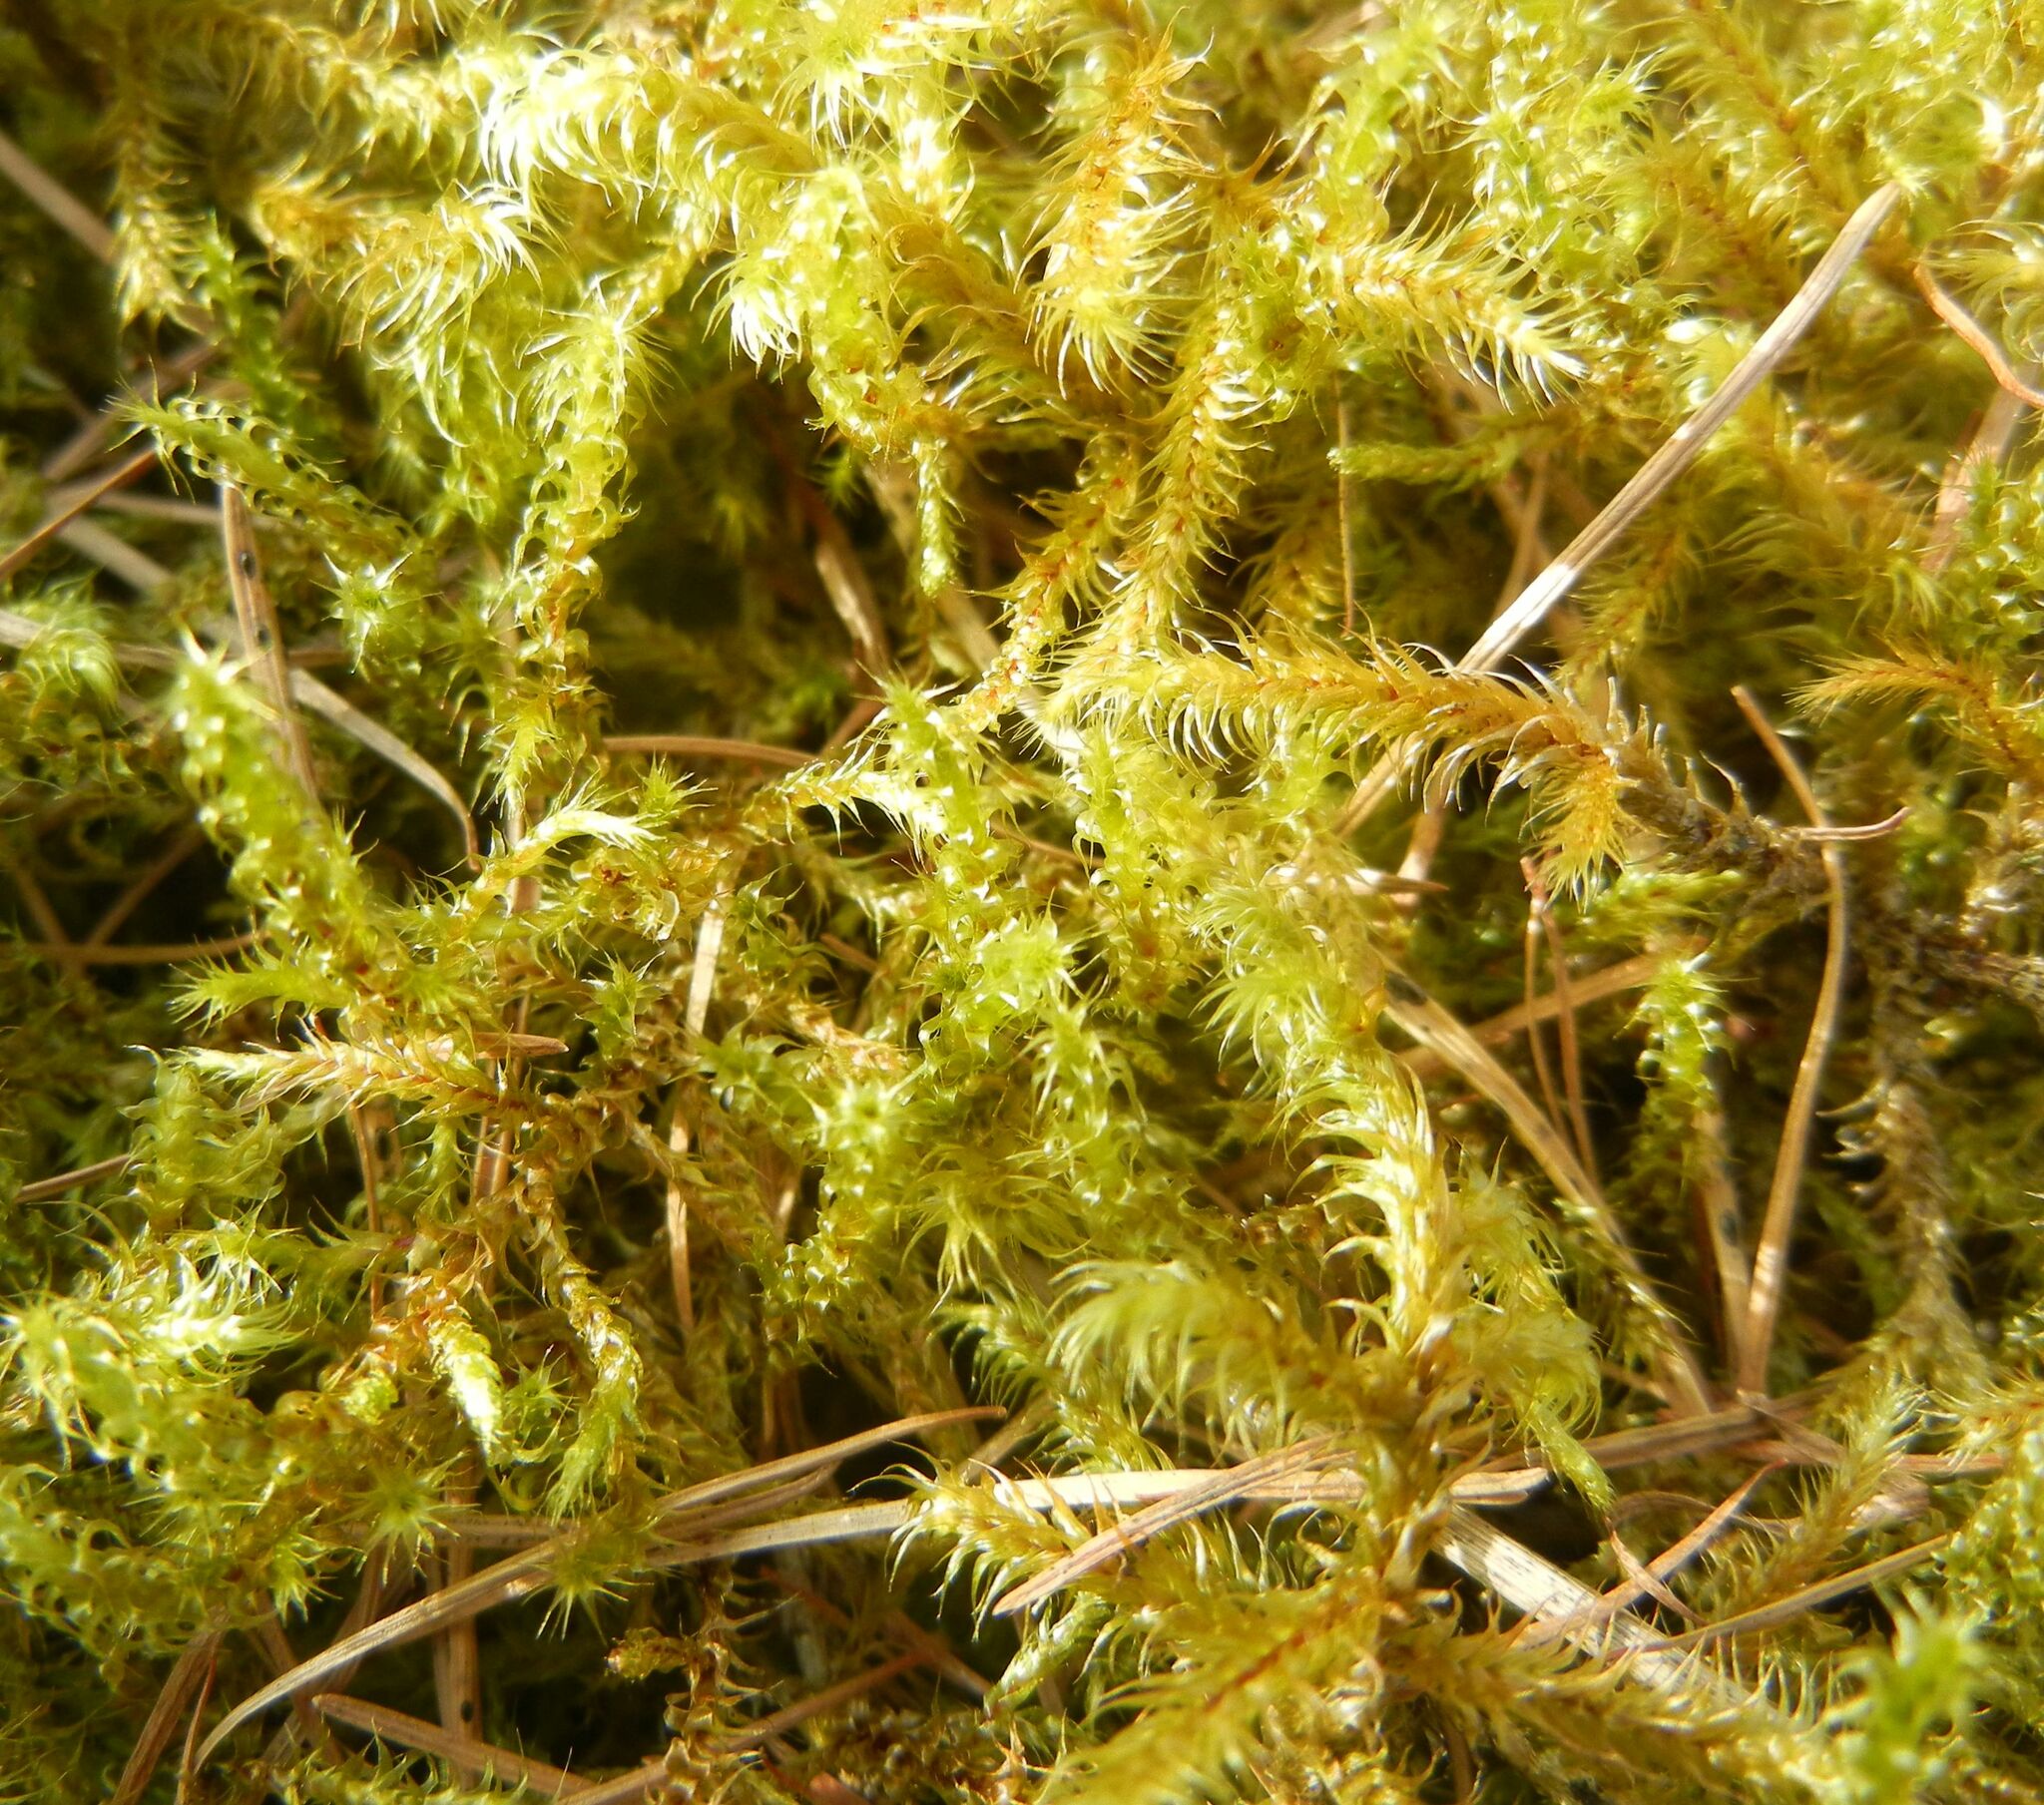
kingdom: Plantae
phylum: Bryophyta
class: Bryopsida
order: Hypnales
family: Hylocomiaceae
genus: Rhytidiadelphus
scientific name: Rhytidiadelphus squarrosus
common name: Springy turf-moss
